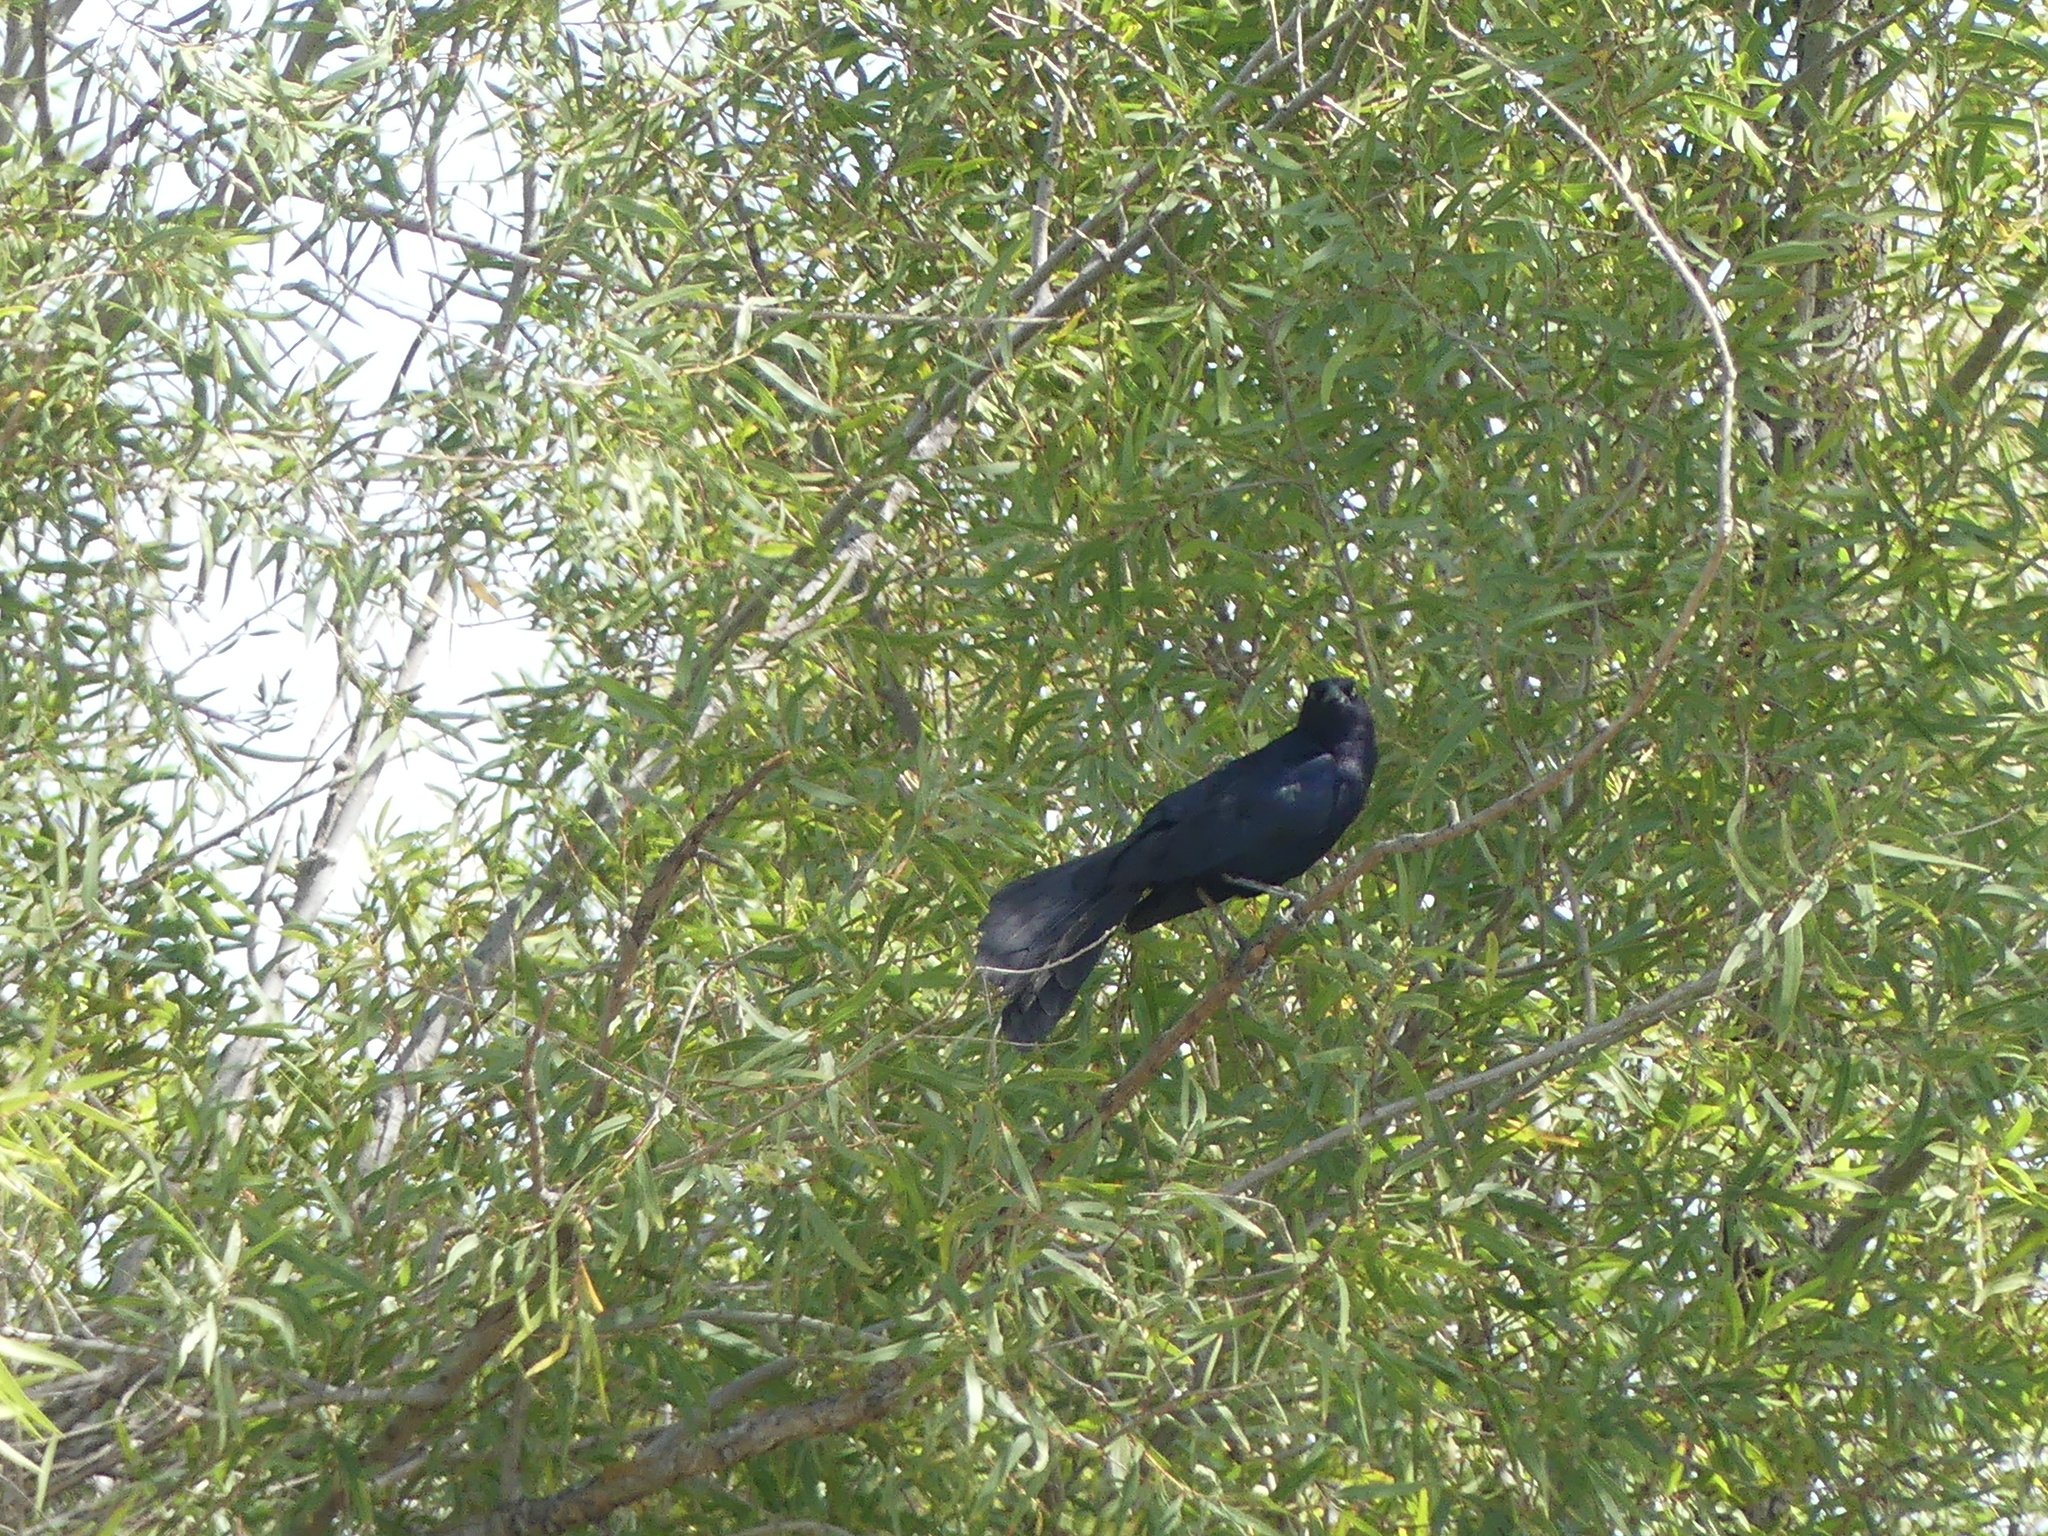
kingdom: Animalia
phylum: Chordata
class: Aves
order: Passeriformes
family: Icteridae
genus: Quiscalus
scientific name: Quiscalus mexicanus
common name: Great-tailed grackle
